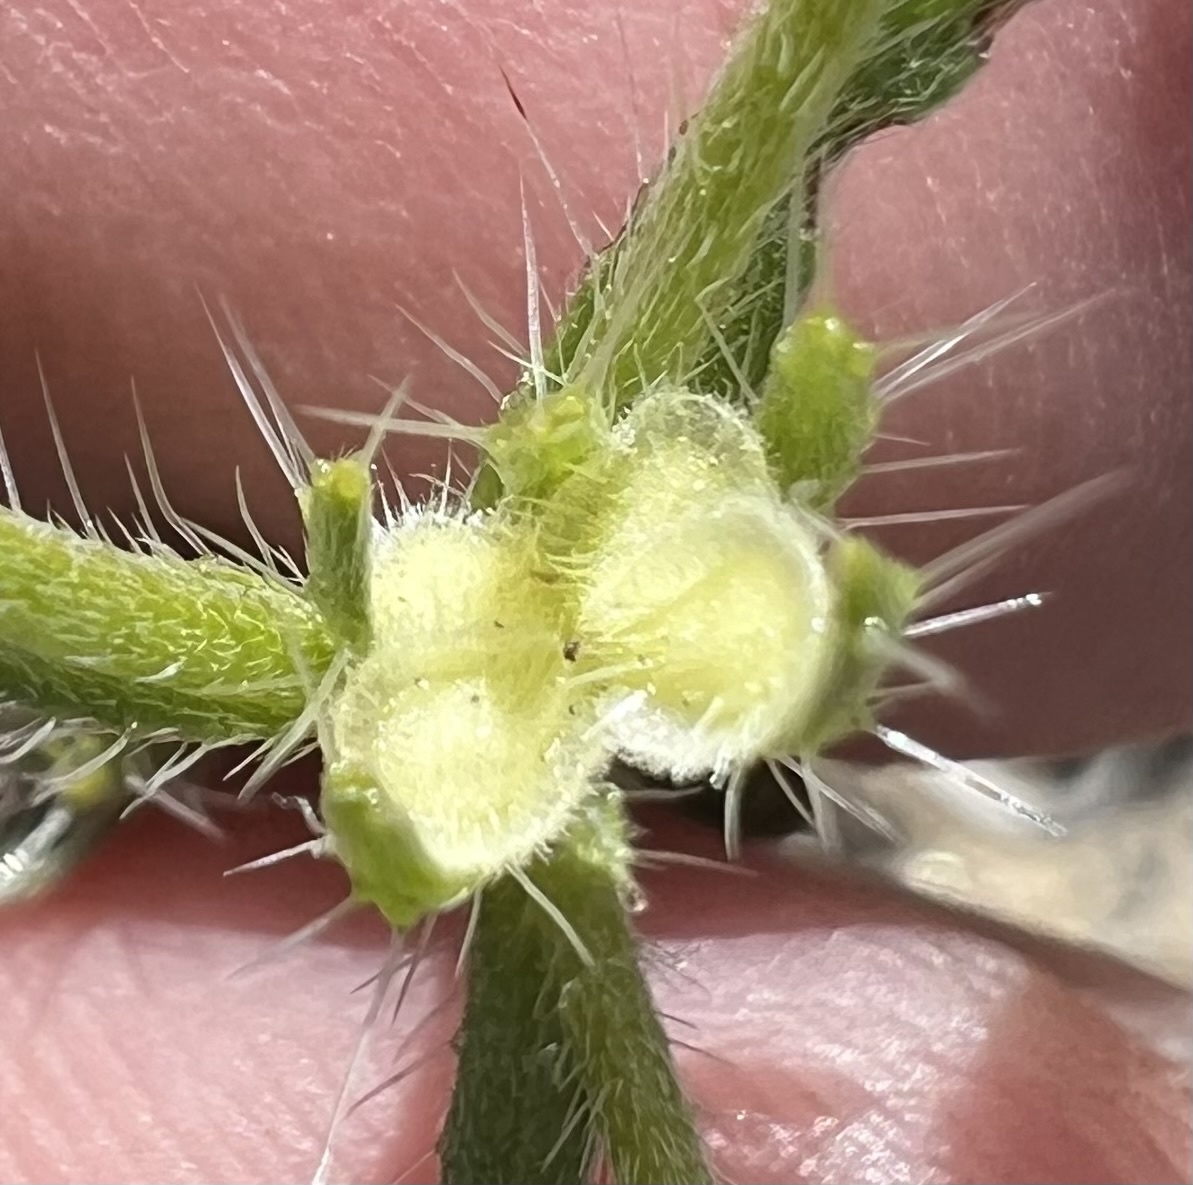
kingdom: Plantae
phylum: Tracheophyta
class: Magnoliopsida
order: Boraginales
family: Boraginaceae
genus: Pectocarya
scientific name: Pectocarya setosa
